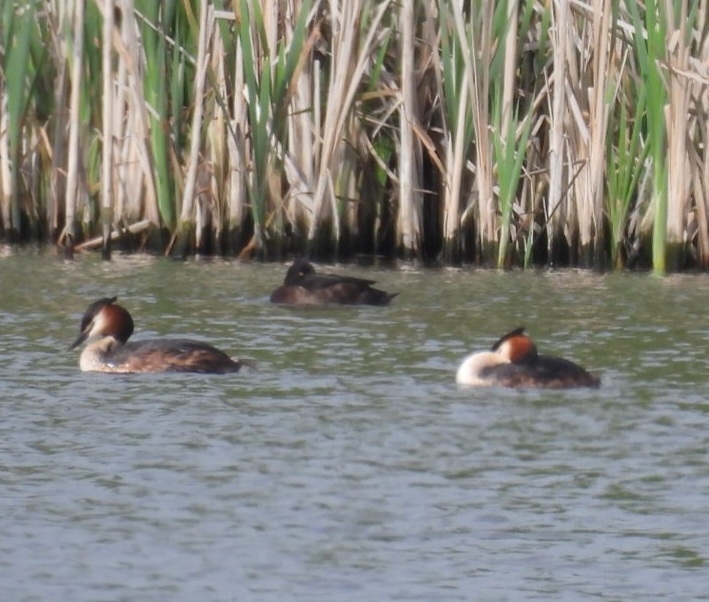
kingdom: Animalia
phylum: Chordata
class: Aves
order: Podicipediformes
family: Podicipedidae
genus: Podiceps
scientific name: Podiceps cristatus
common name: Great crested grebe
